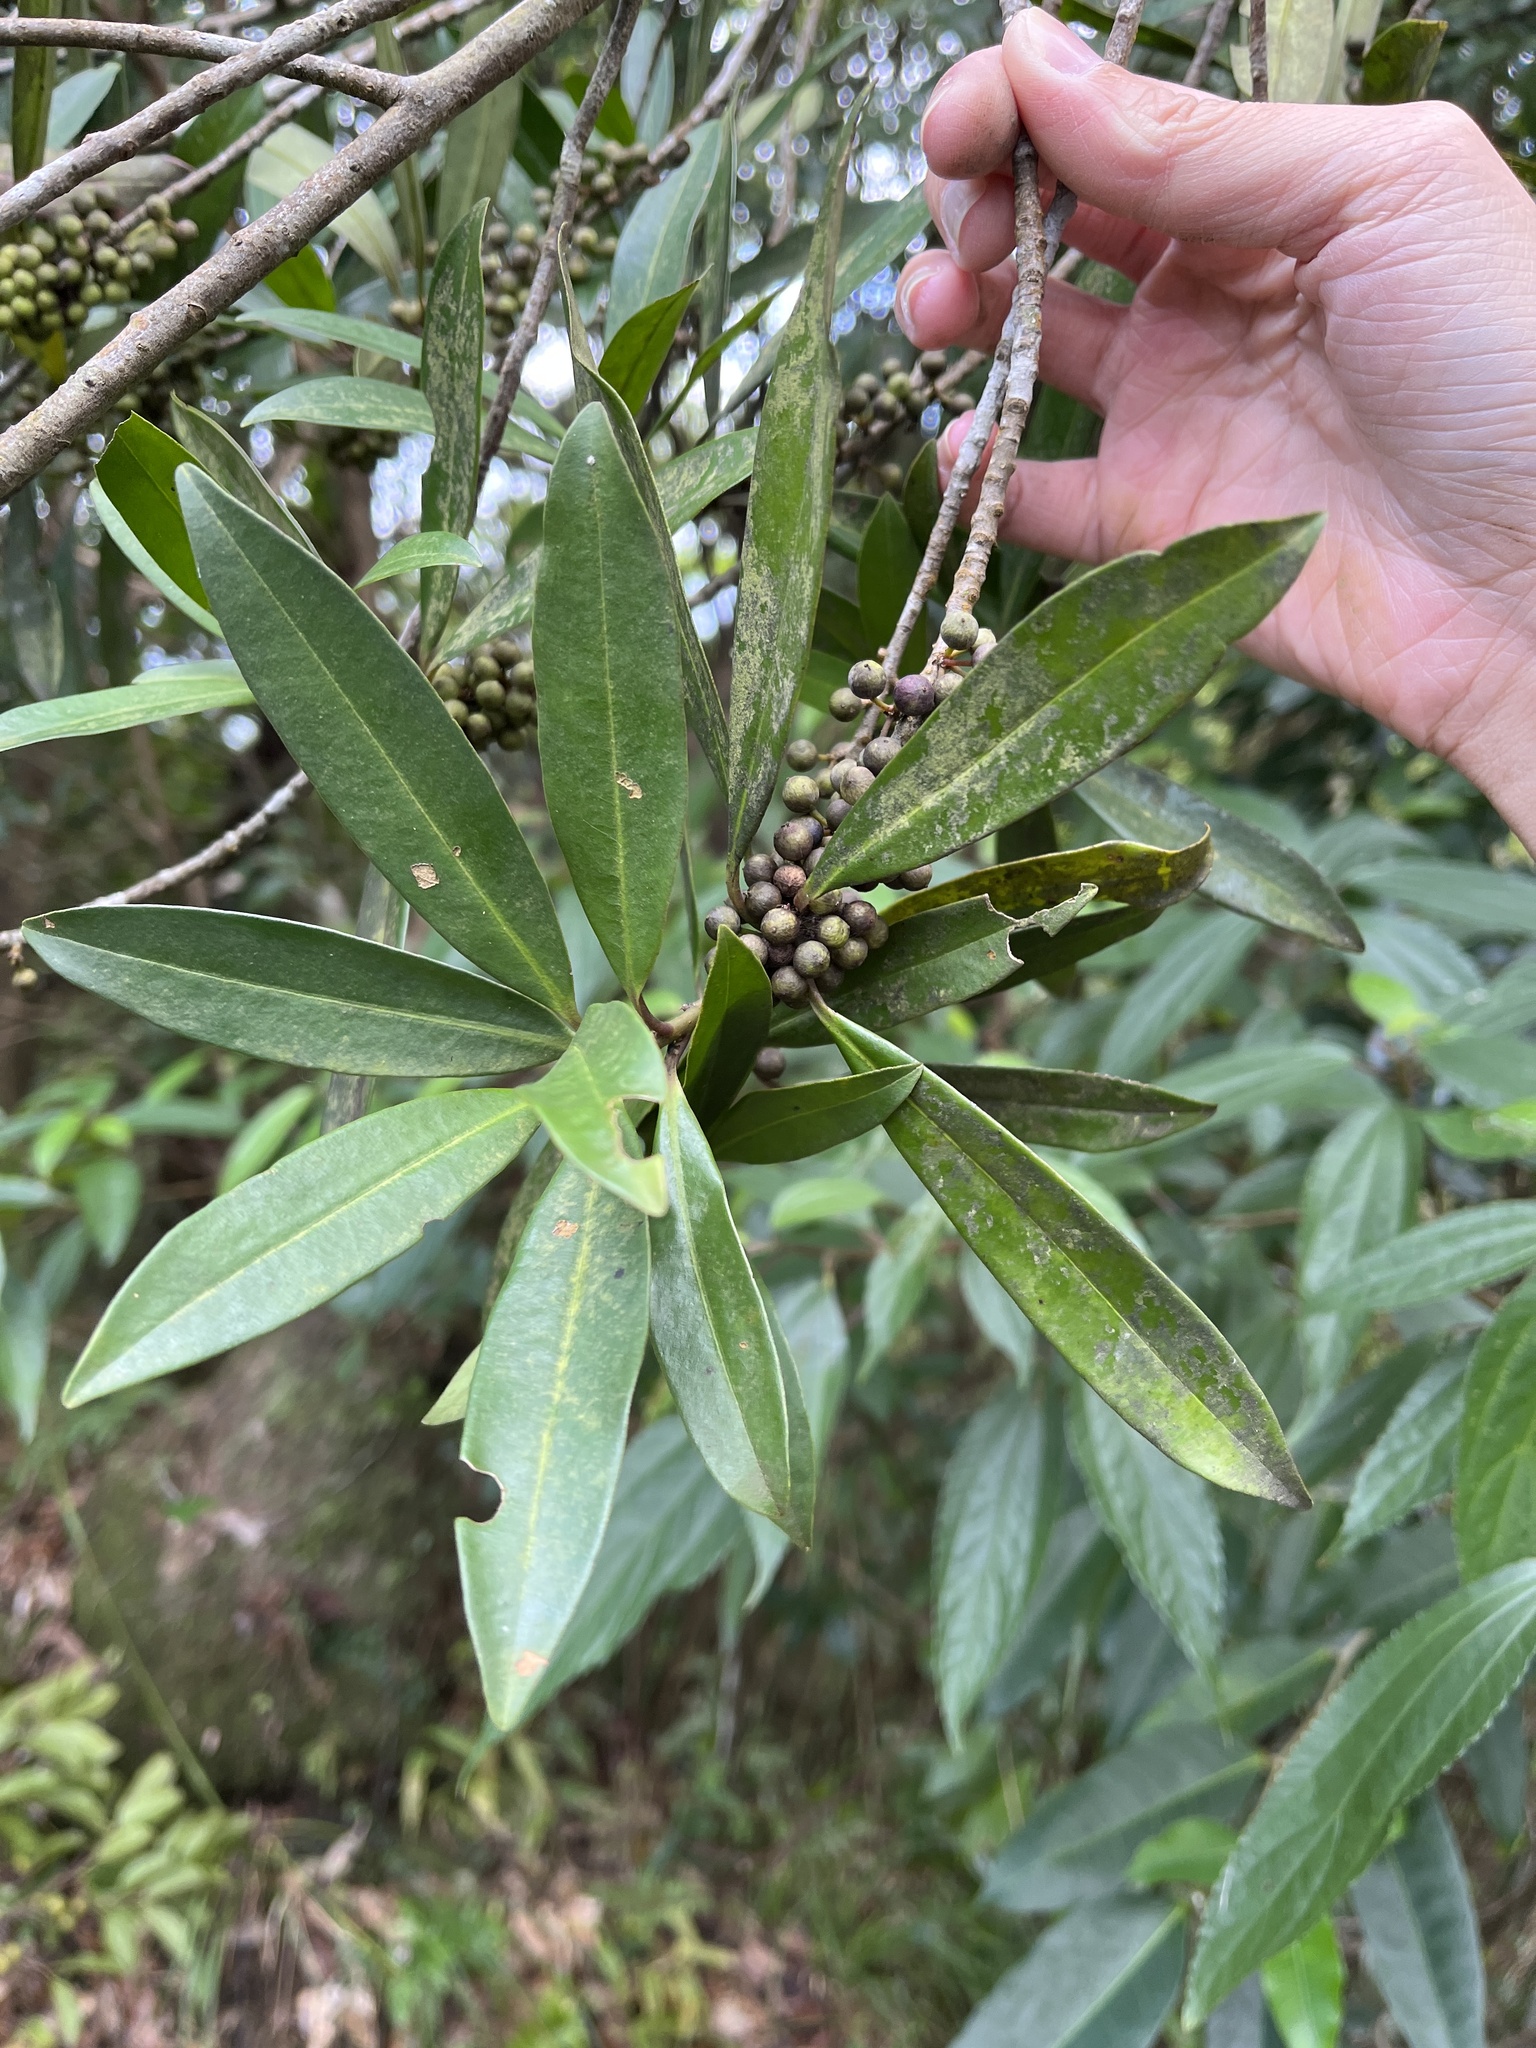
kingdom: Plantae
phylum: Tracheophyta
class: Magnoliopsida
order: Ericales
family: Primulaceae
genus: Myrsine
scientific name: Myrsine seguinii
